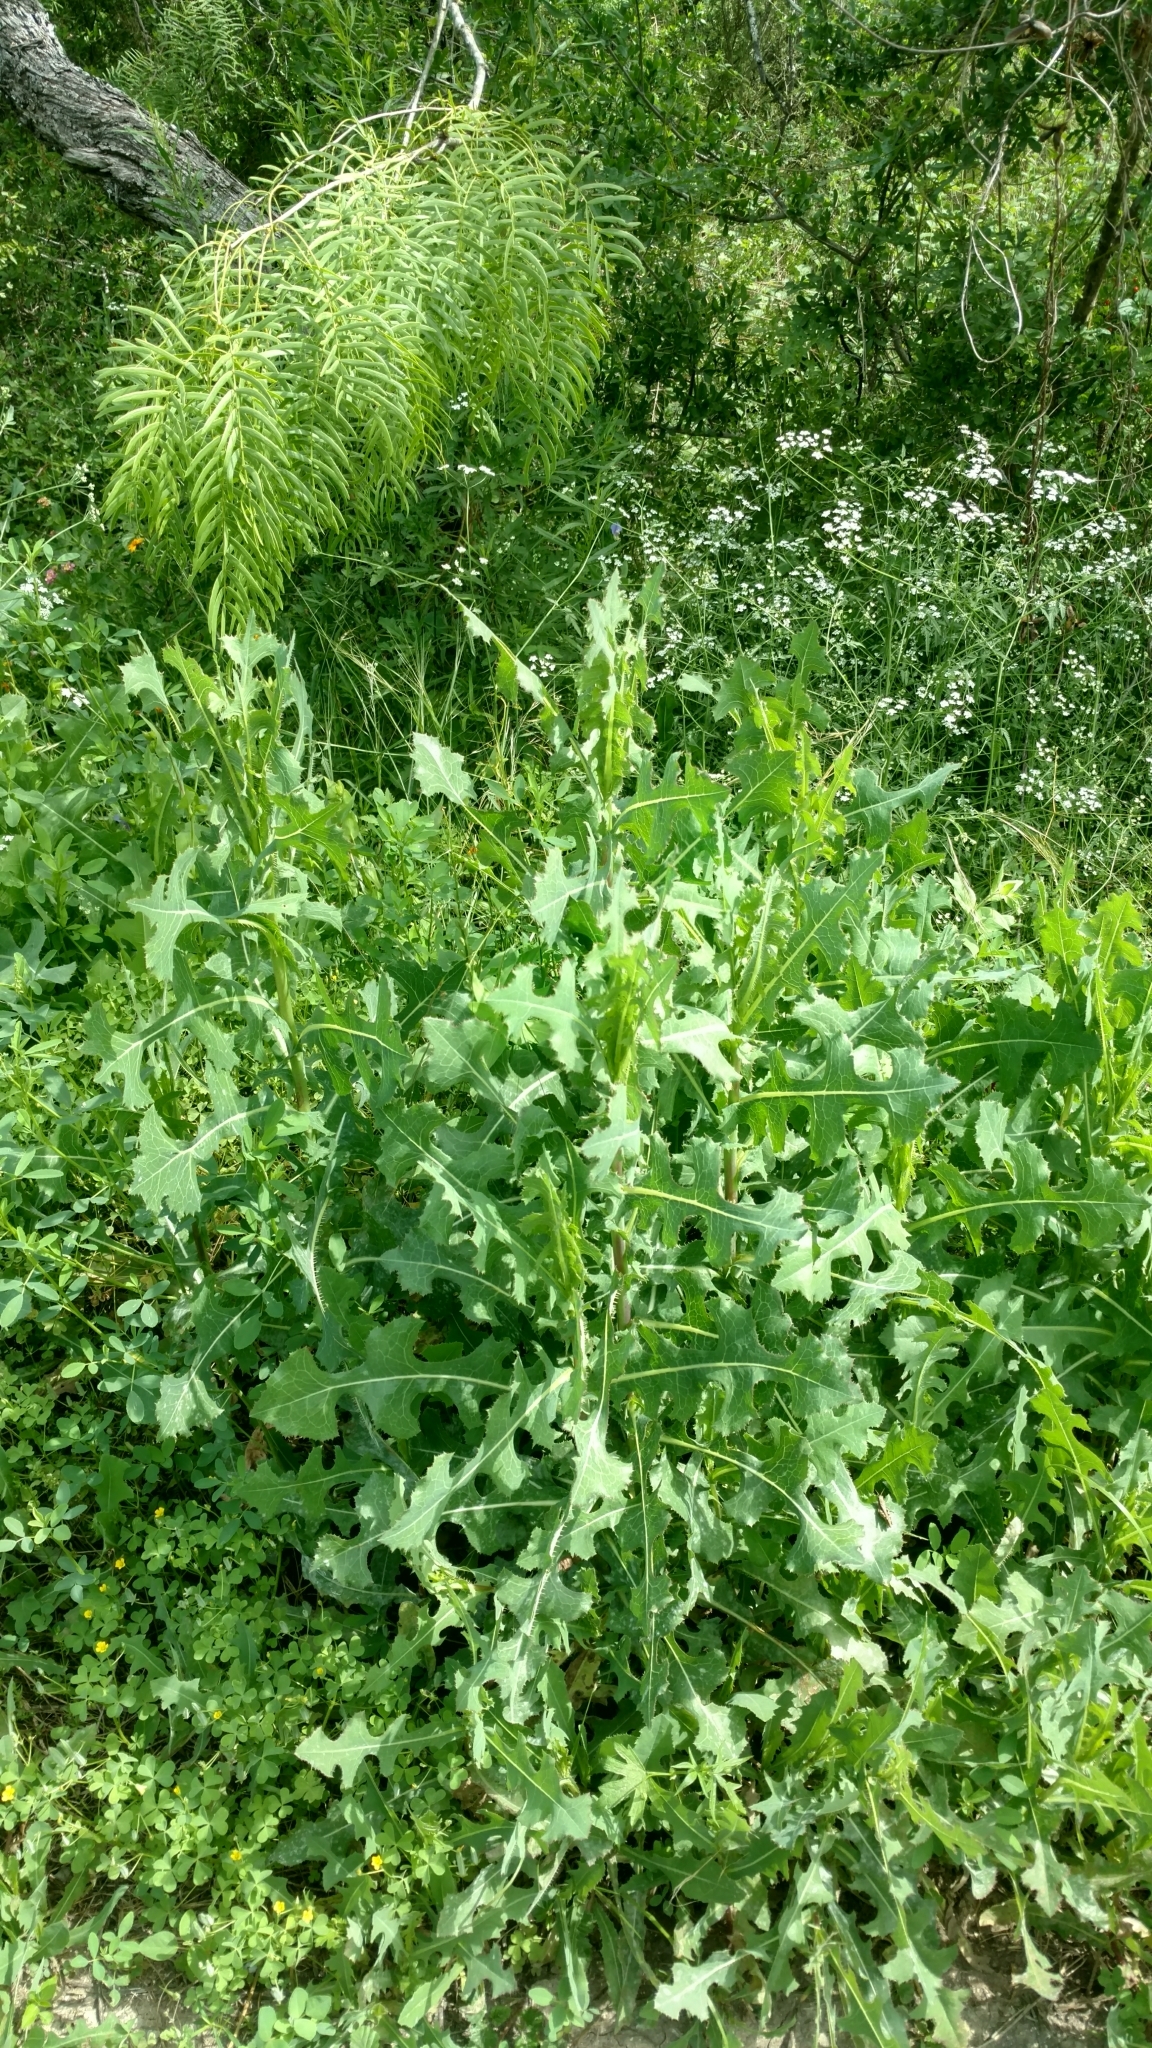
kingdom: Plantae
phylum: Tracheophyta
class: Magnoliopsida
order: Asterales
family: Asteraceae
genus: Lactuca
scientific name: Lactuca serriola
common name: Prickly lettuce
